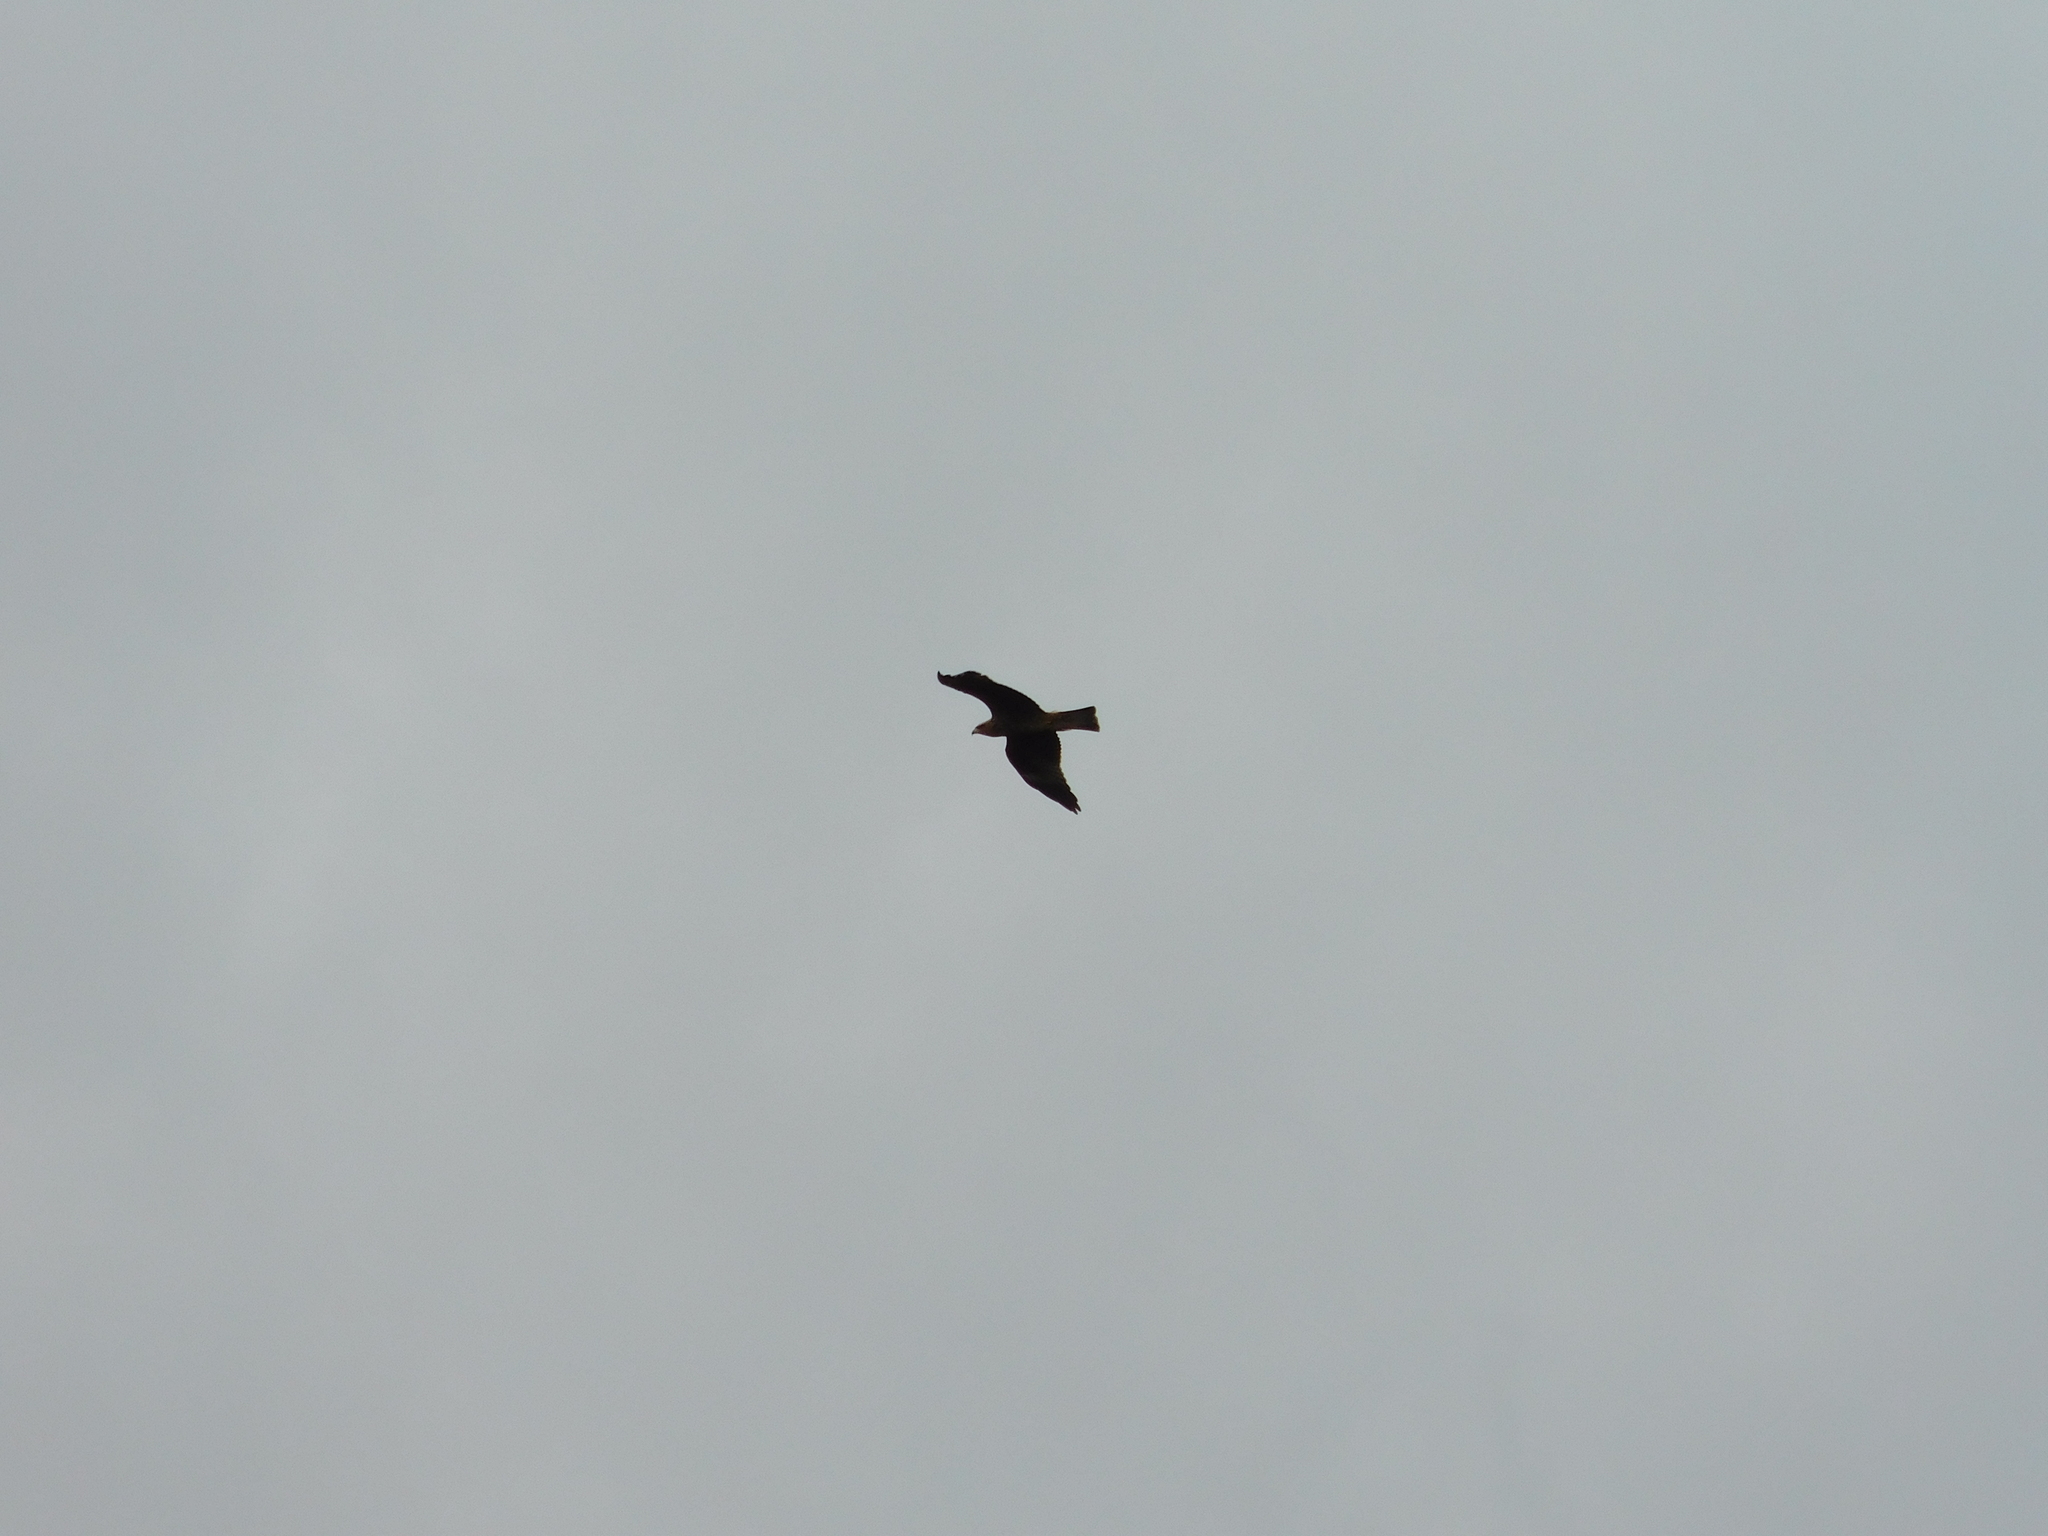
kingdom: Animalia
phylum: Chordata
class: Aves
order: Accipitriformes
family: Accipitridae
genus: Milvus
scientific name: Milvus migrans
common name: Black kite
